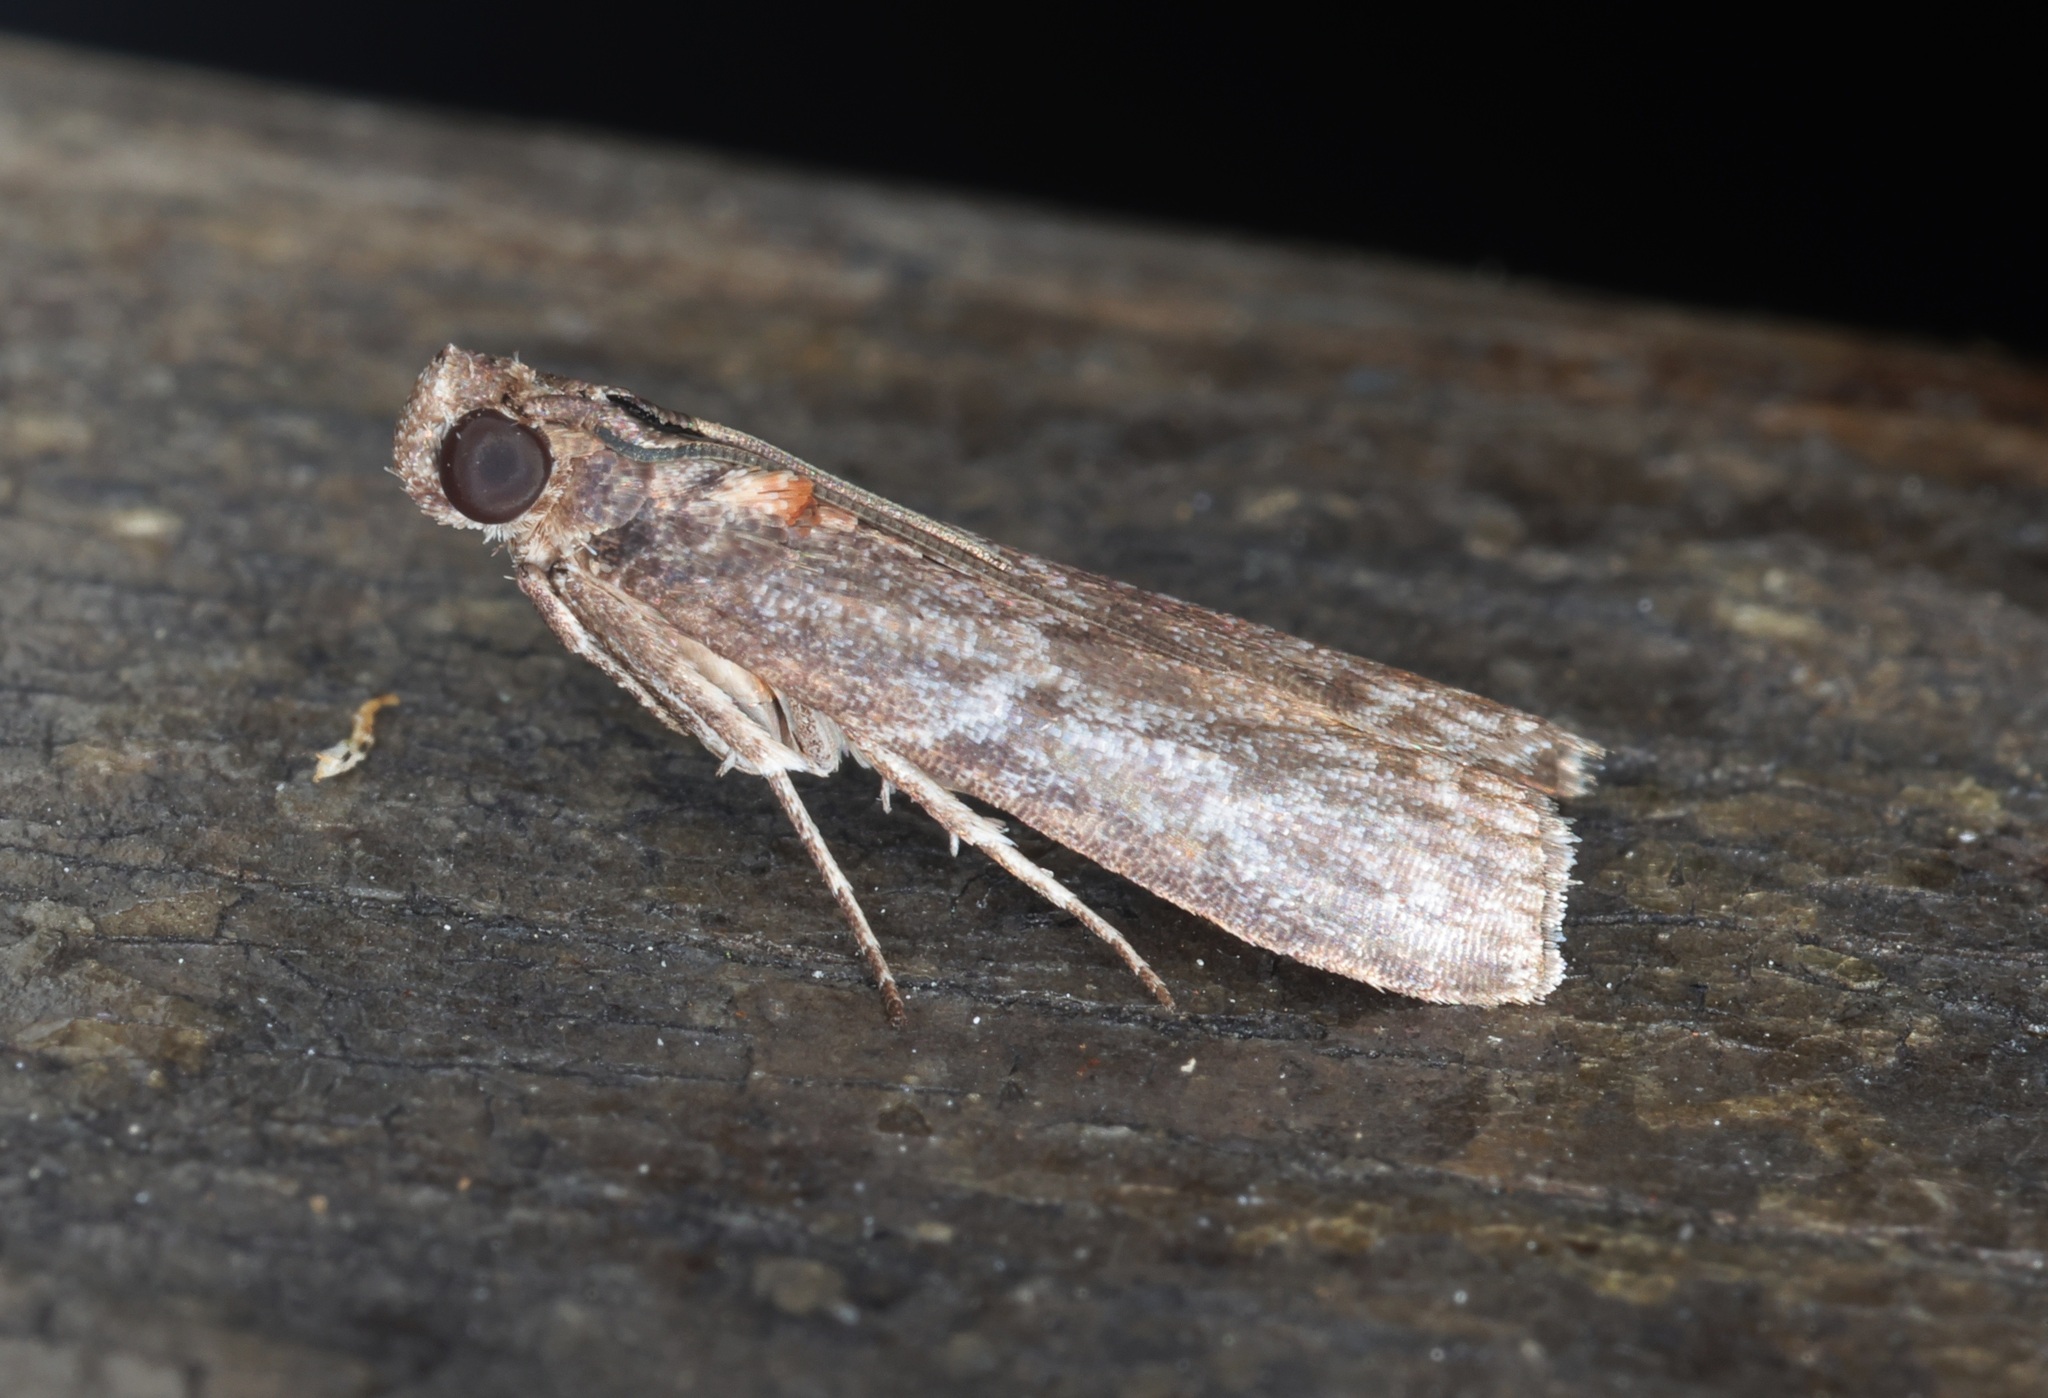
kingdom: Animalia
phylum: Arthropoda
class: Insecta
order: Lepidoptera
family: Pyralidae
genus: Ectomyelois
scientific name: Ectomyelois ceratoniae
